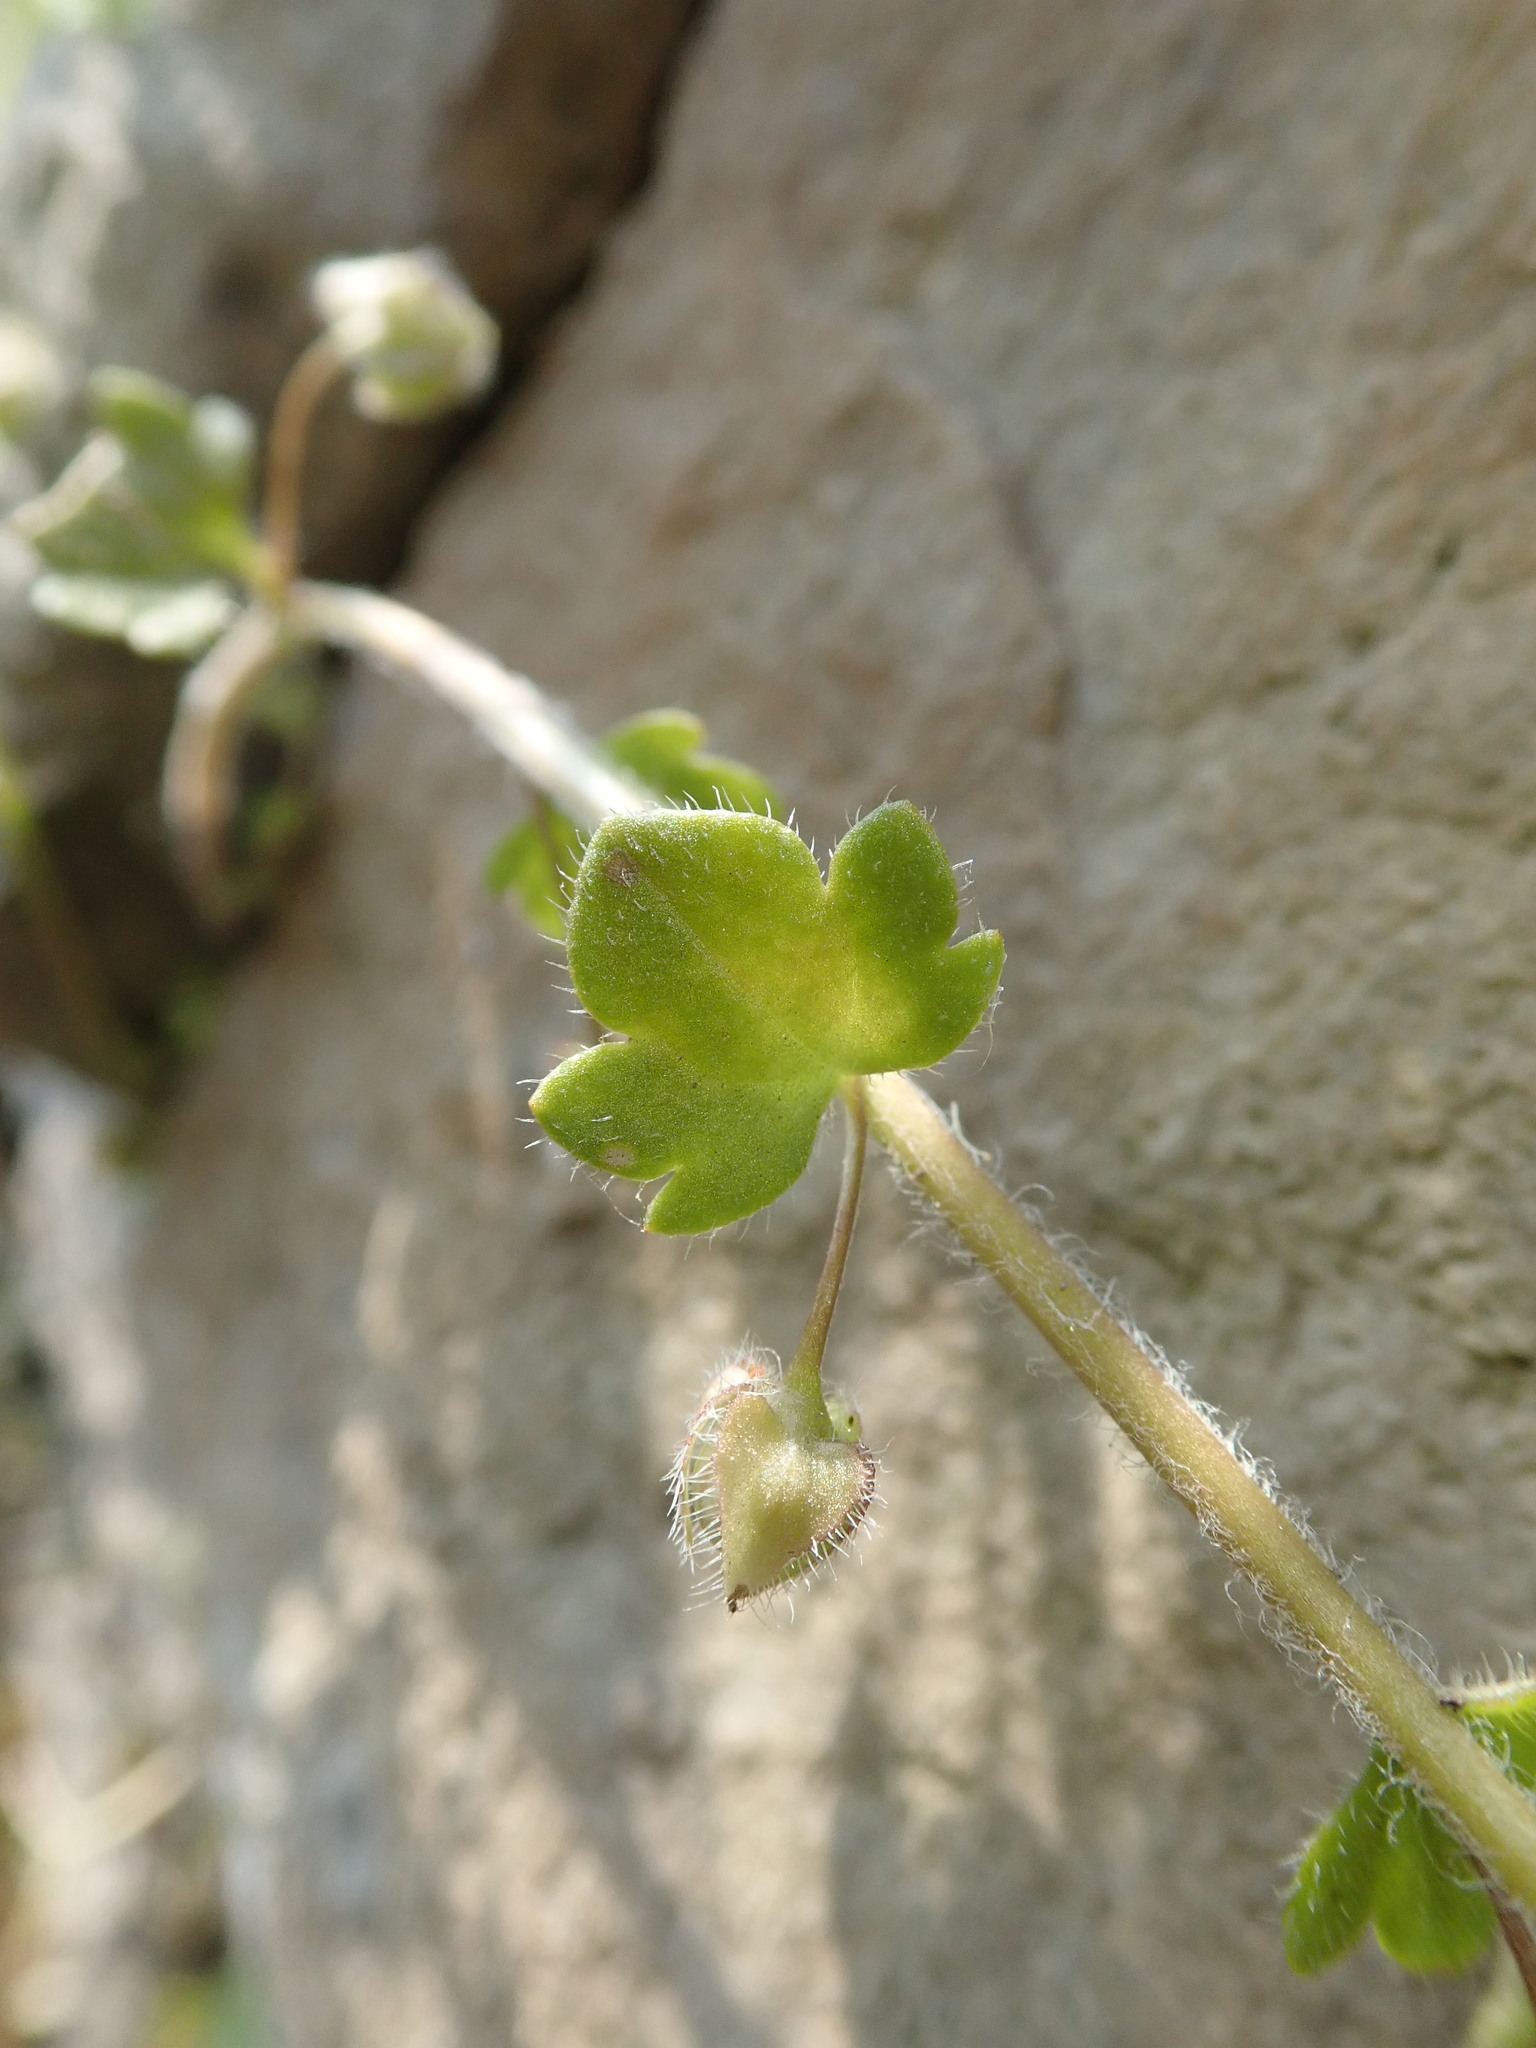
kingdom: Plantae
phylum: Tracheophyta
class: Magnoliopsida
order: Lamiales
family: Plantaginaceae
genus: Veronica
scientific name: Veronica hederifolia
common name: Ivy-leaved speedwell
